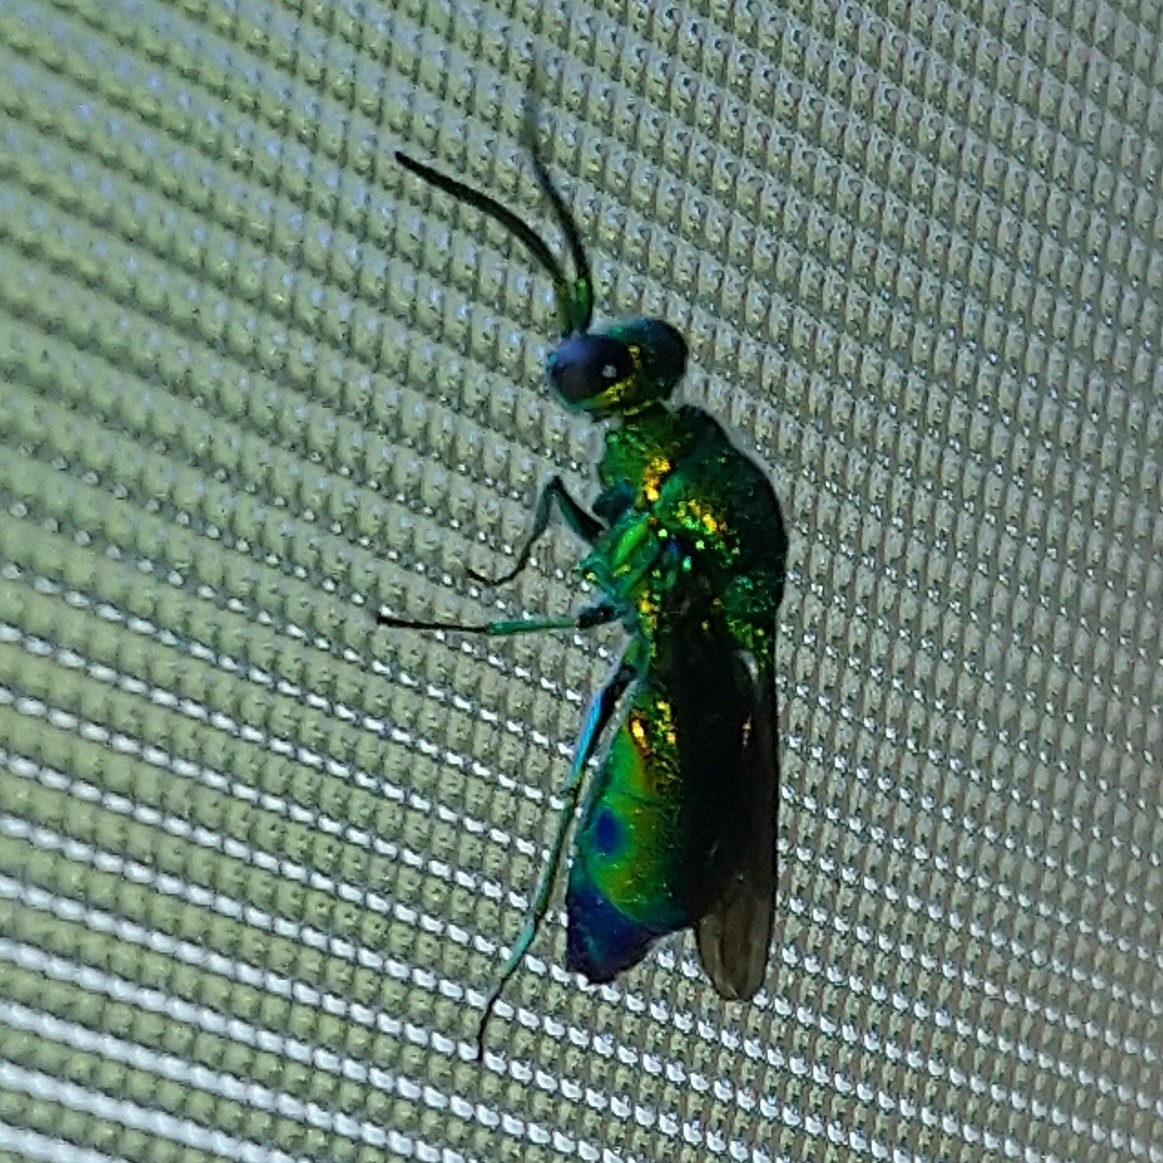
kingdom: Animalia
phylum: Arthropoda
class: Insecta
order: Hymenoptera
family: Chrysididae
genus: Chrysis
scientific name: Chrysis lincea
